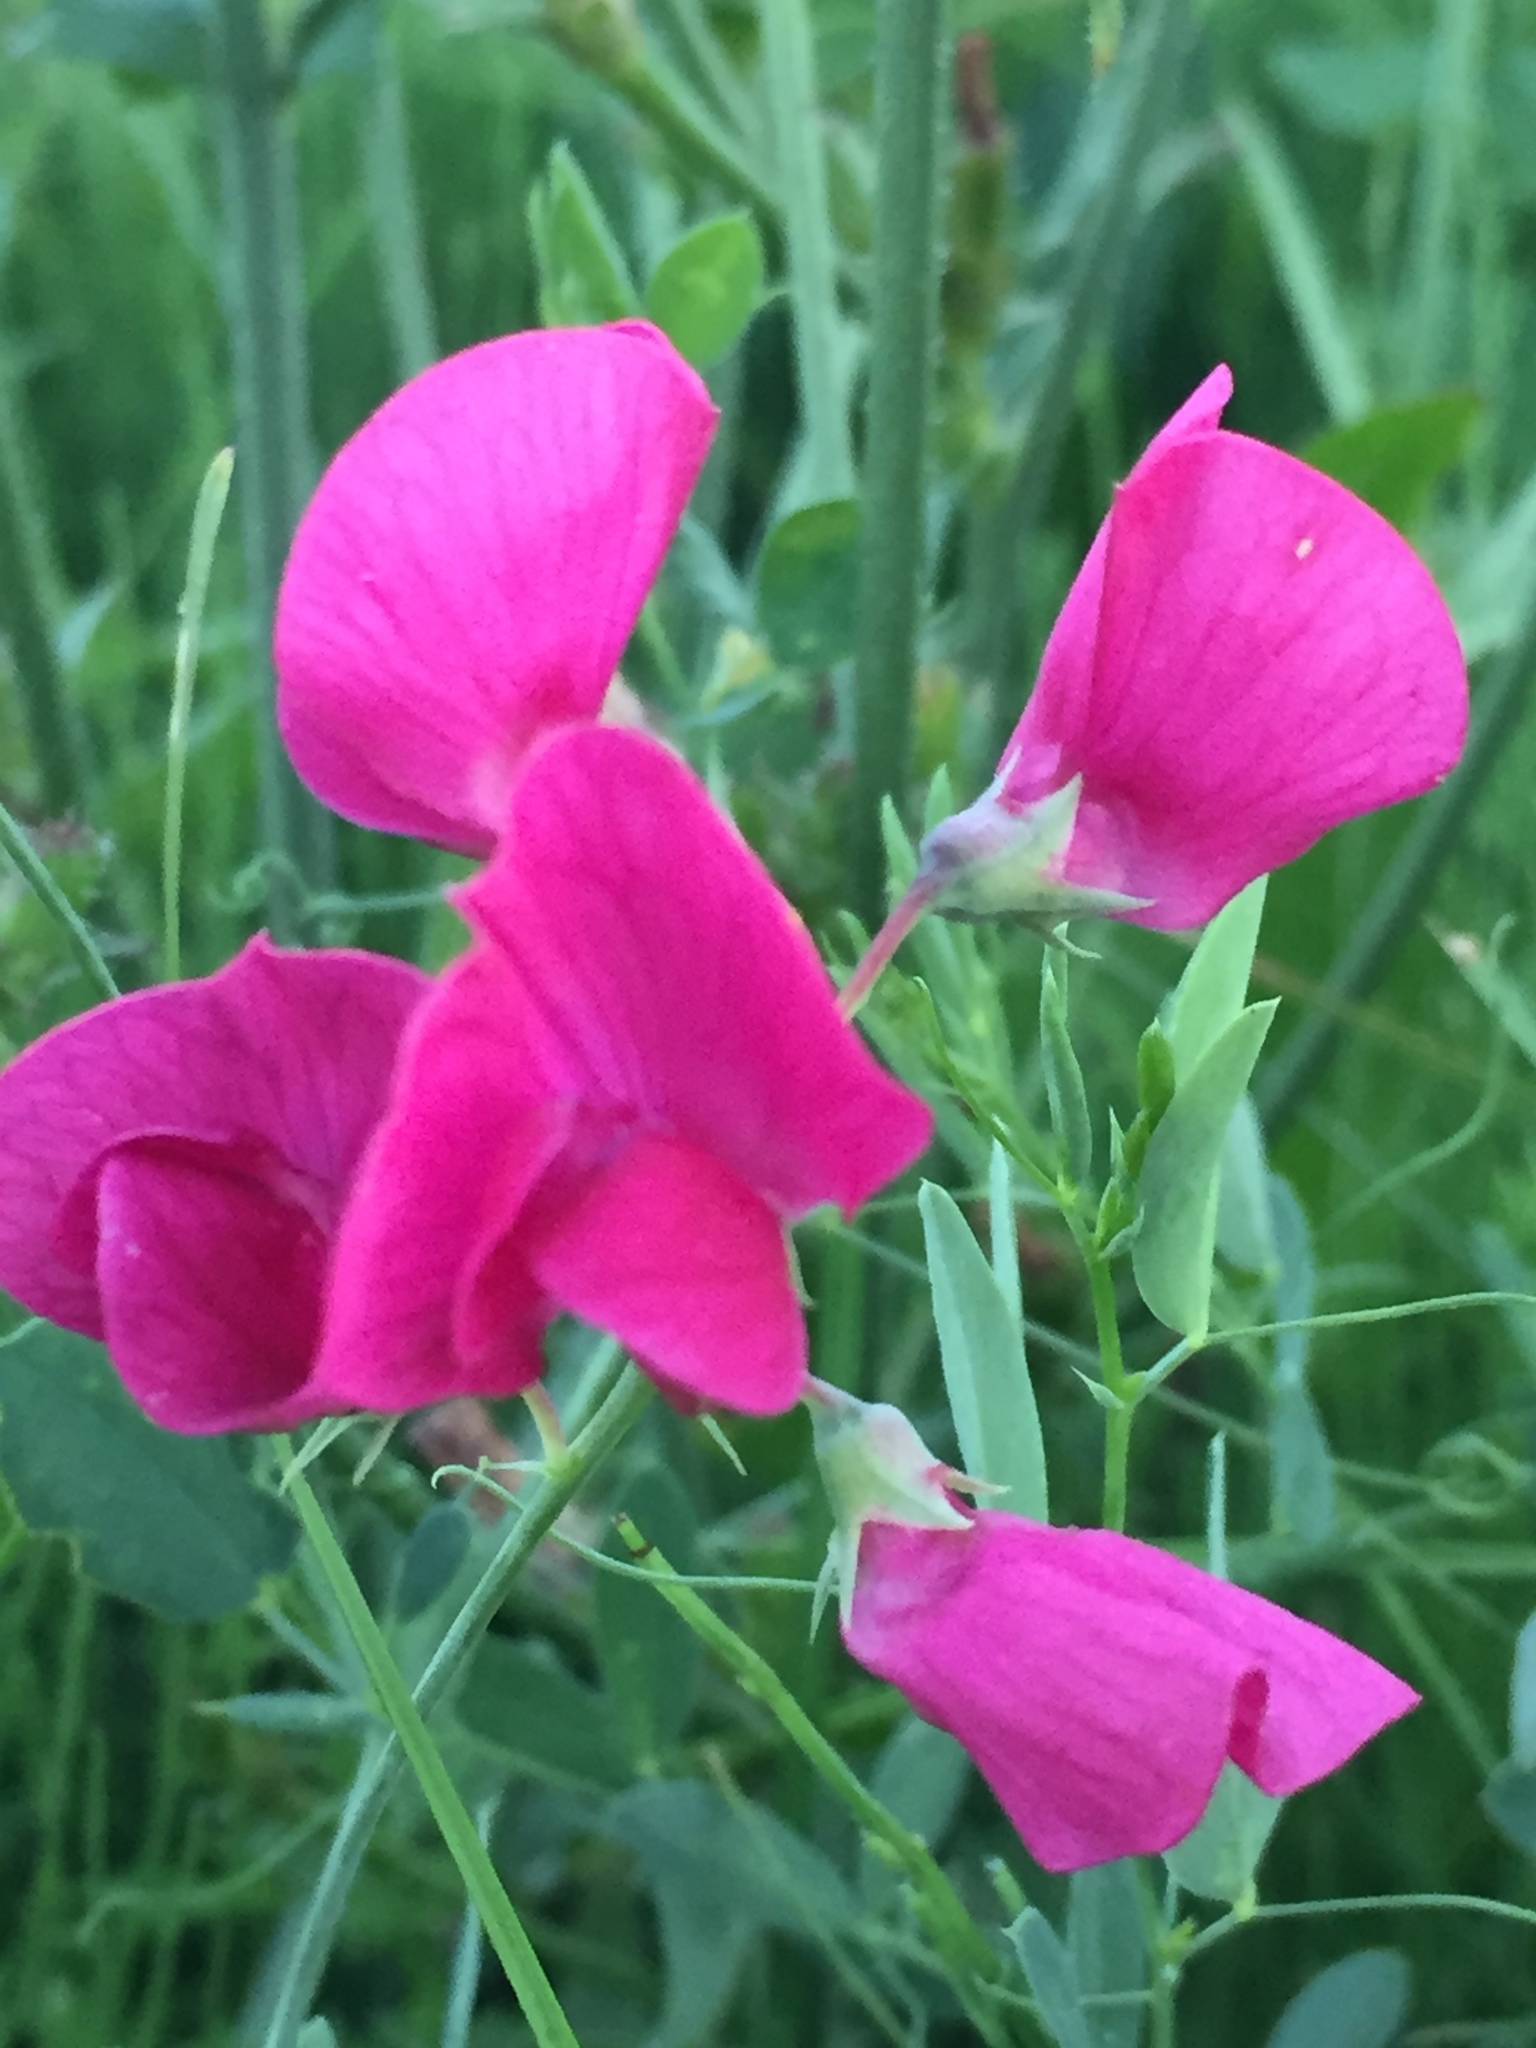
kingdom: Plantae
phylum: Tracheophyta
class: Magnoliopsida
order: Fabales
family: Fabaceae
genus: Lathyrus
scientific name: Lathyrus tuberosus
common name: Tuberous pea
